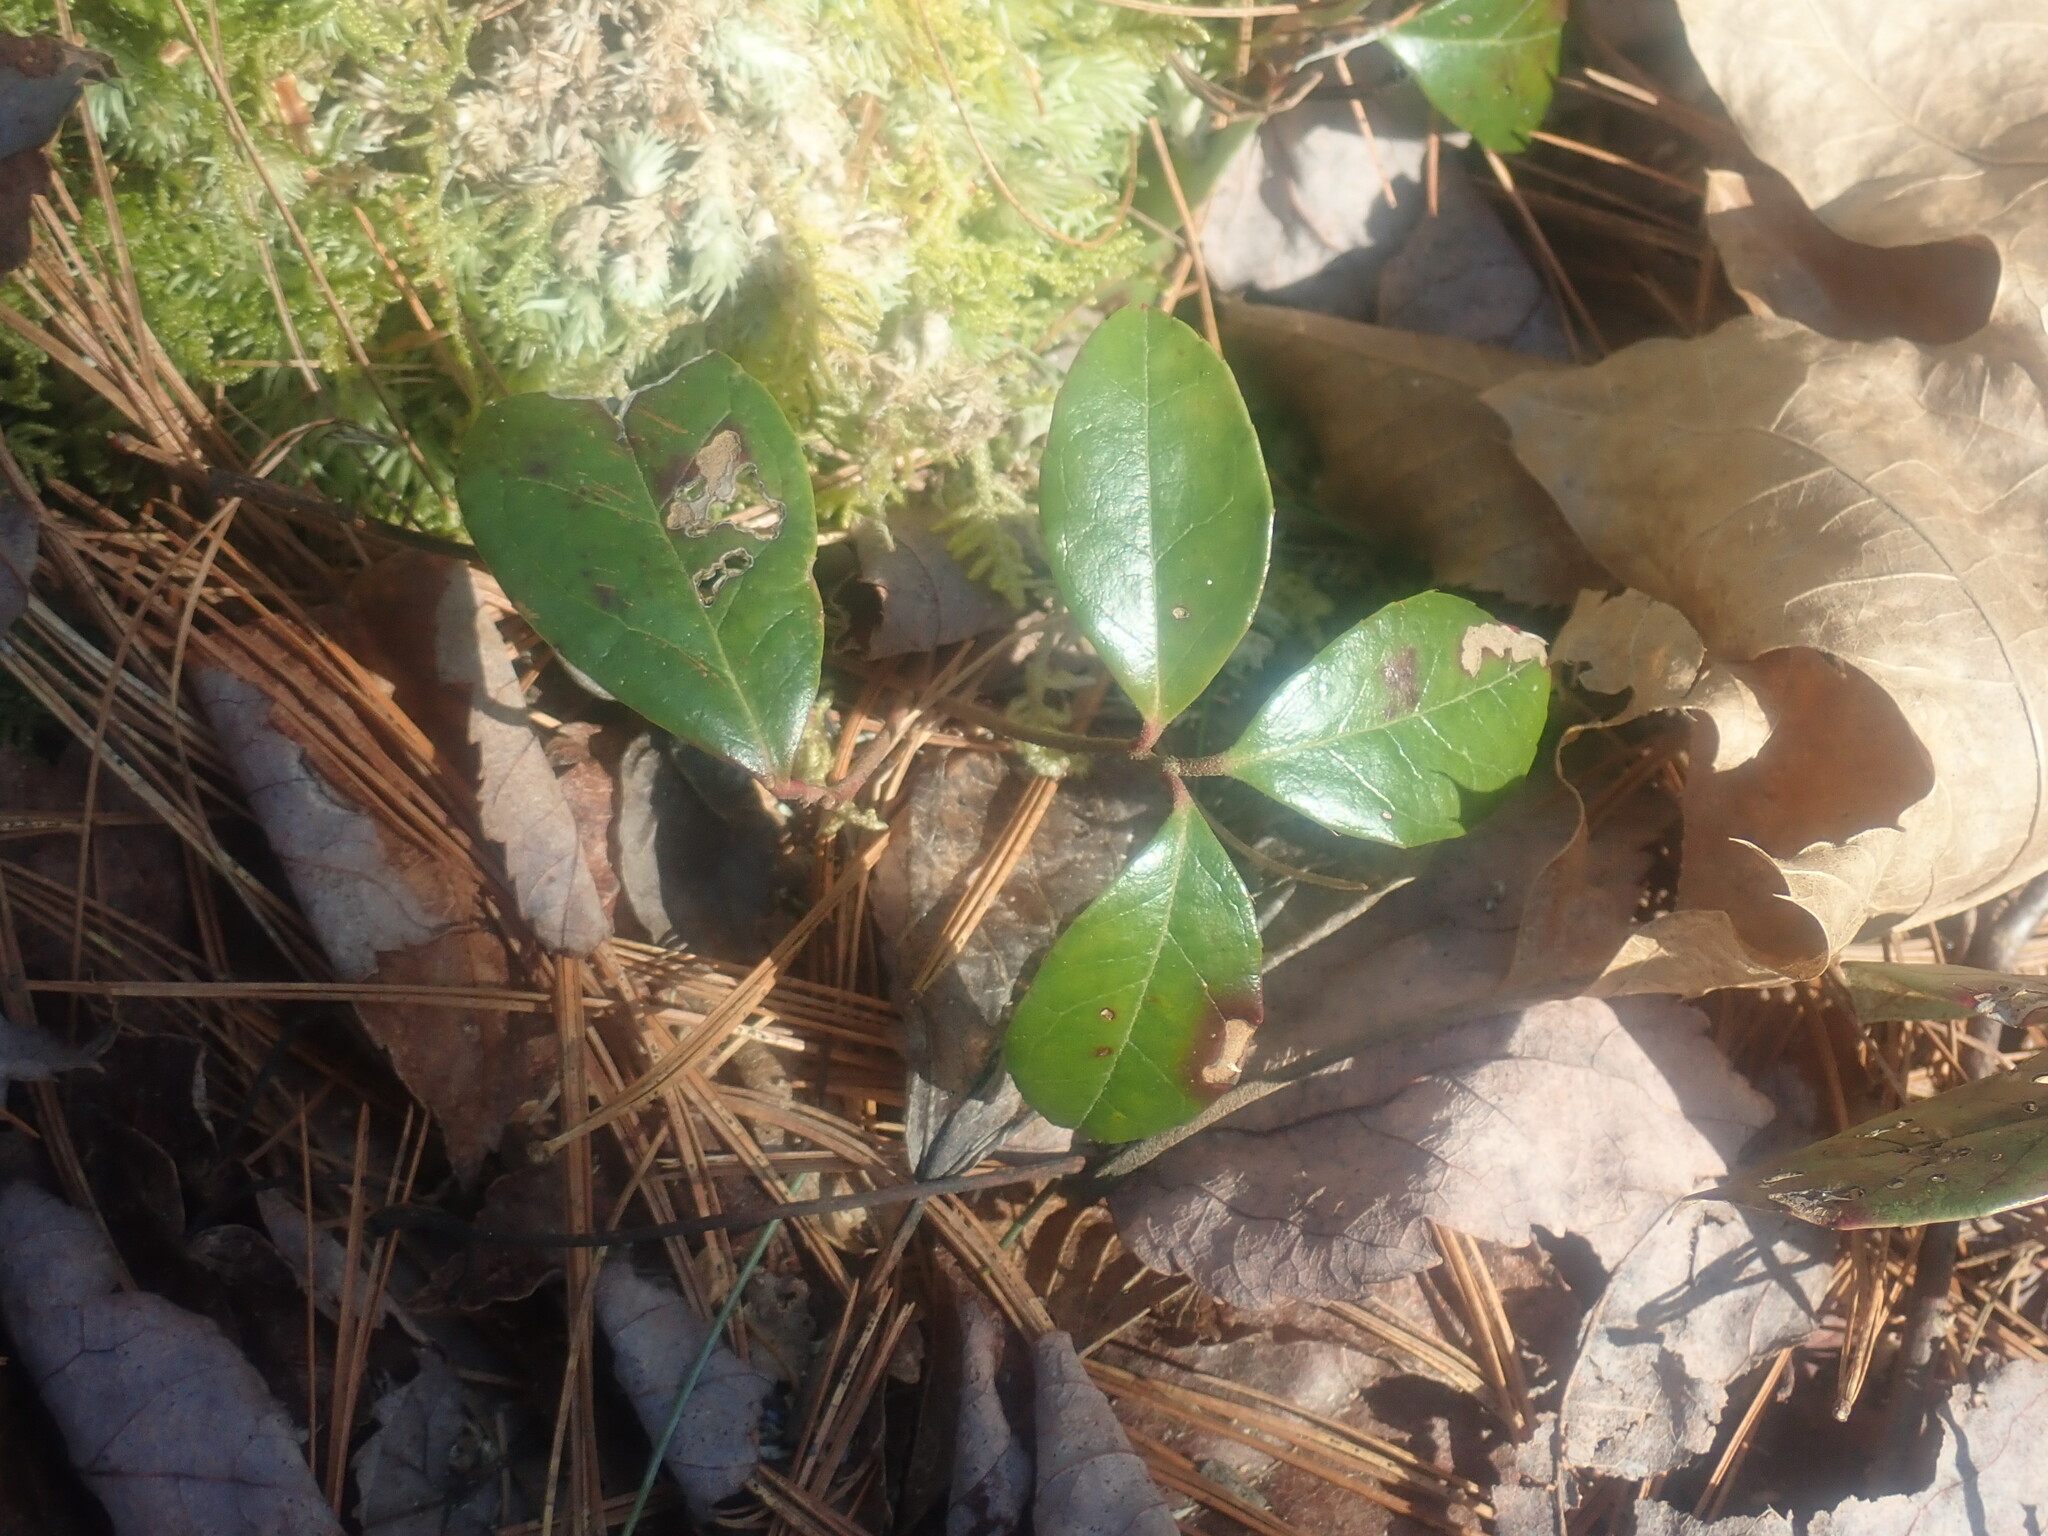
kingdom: Plantae
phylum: Tracheophyta
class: Magnoliopsida
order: Ericales
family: Ericaceae
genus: Gaultheria
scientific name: Gaultheria procumbens
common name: Checkerberry
